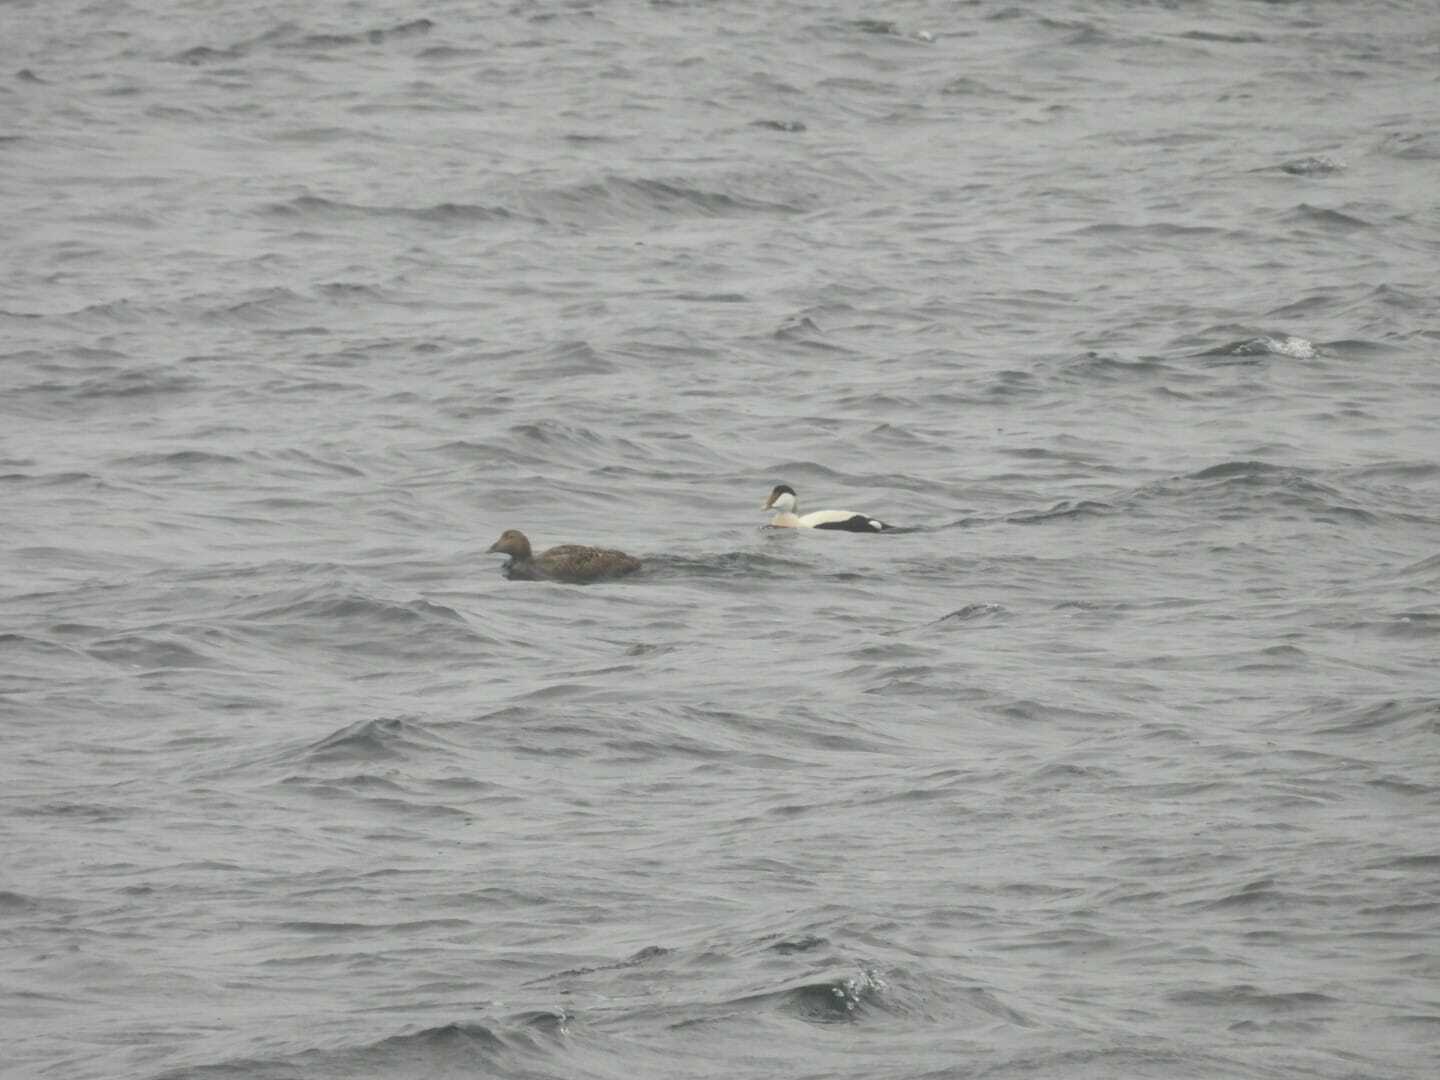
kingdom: Animalia
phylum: Chordata
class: Aves
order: Anseriformes
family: Anatidae
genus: Somateria
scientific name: Somateria mollissima
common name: Common eider
